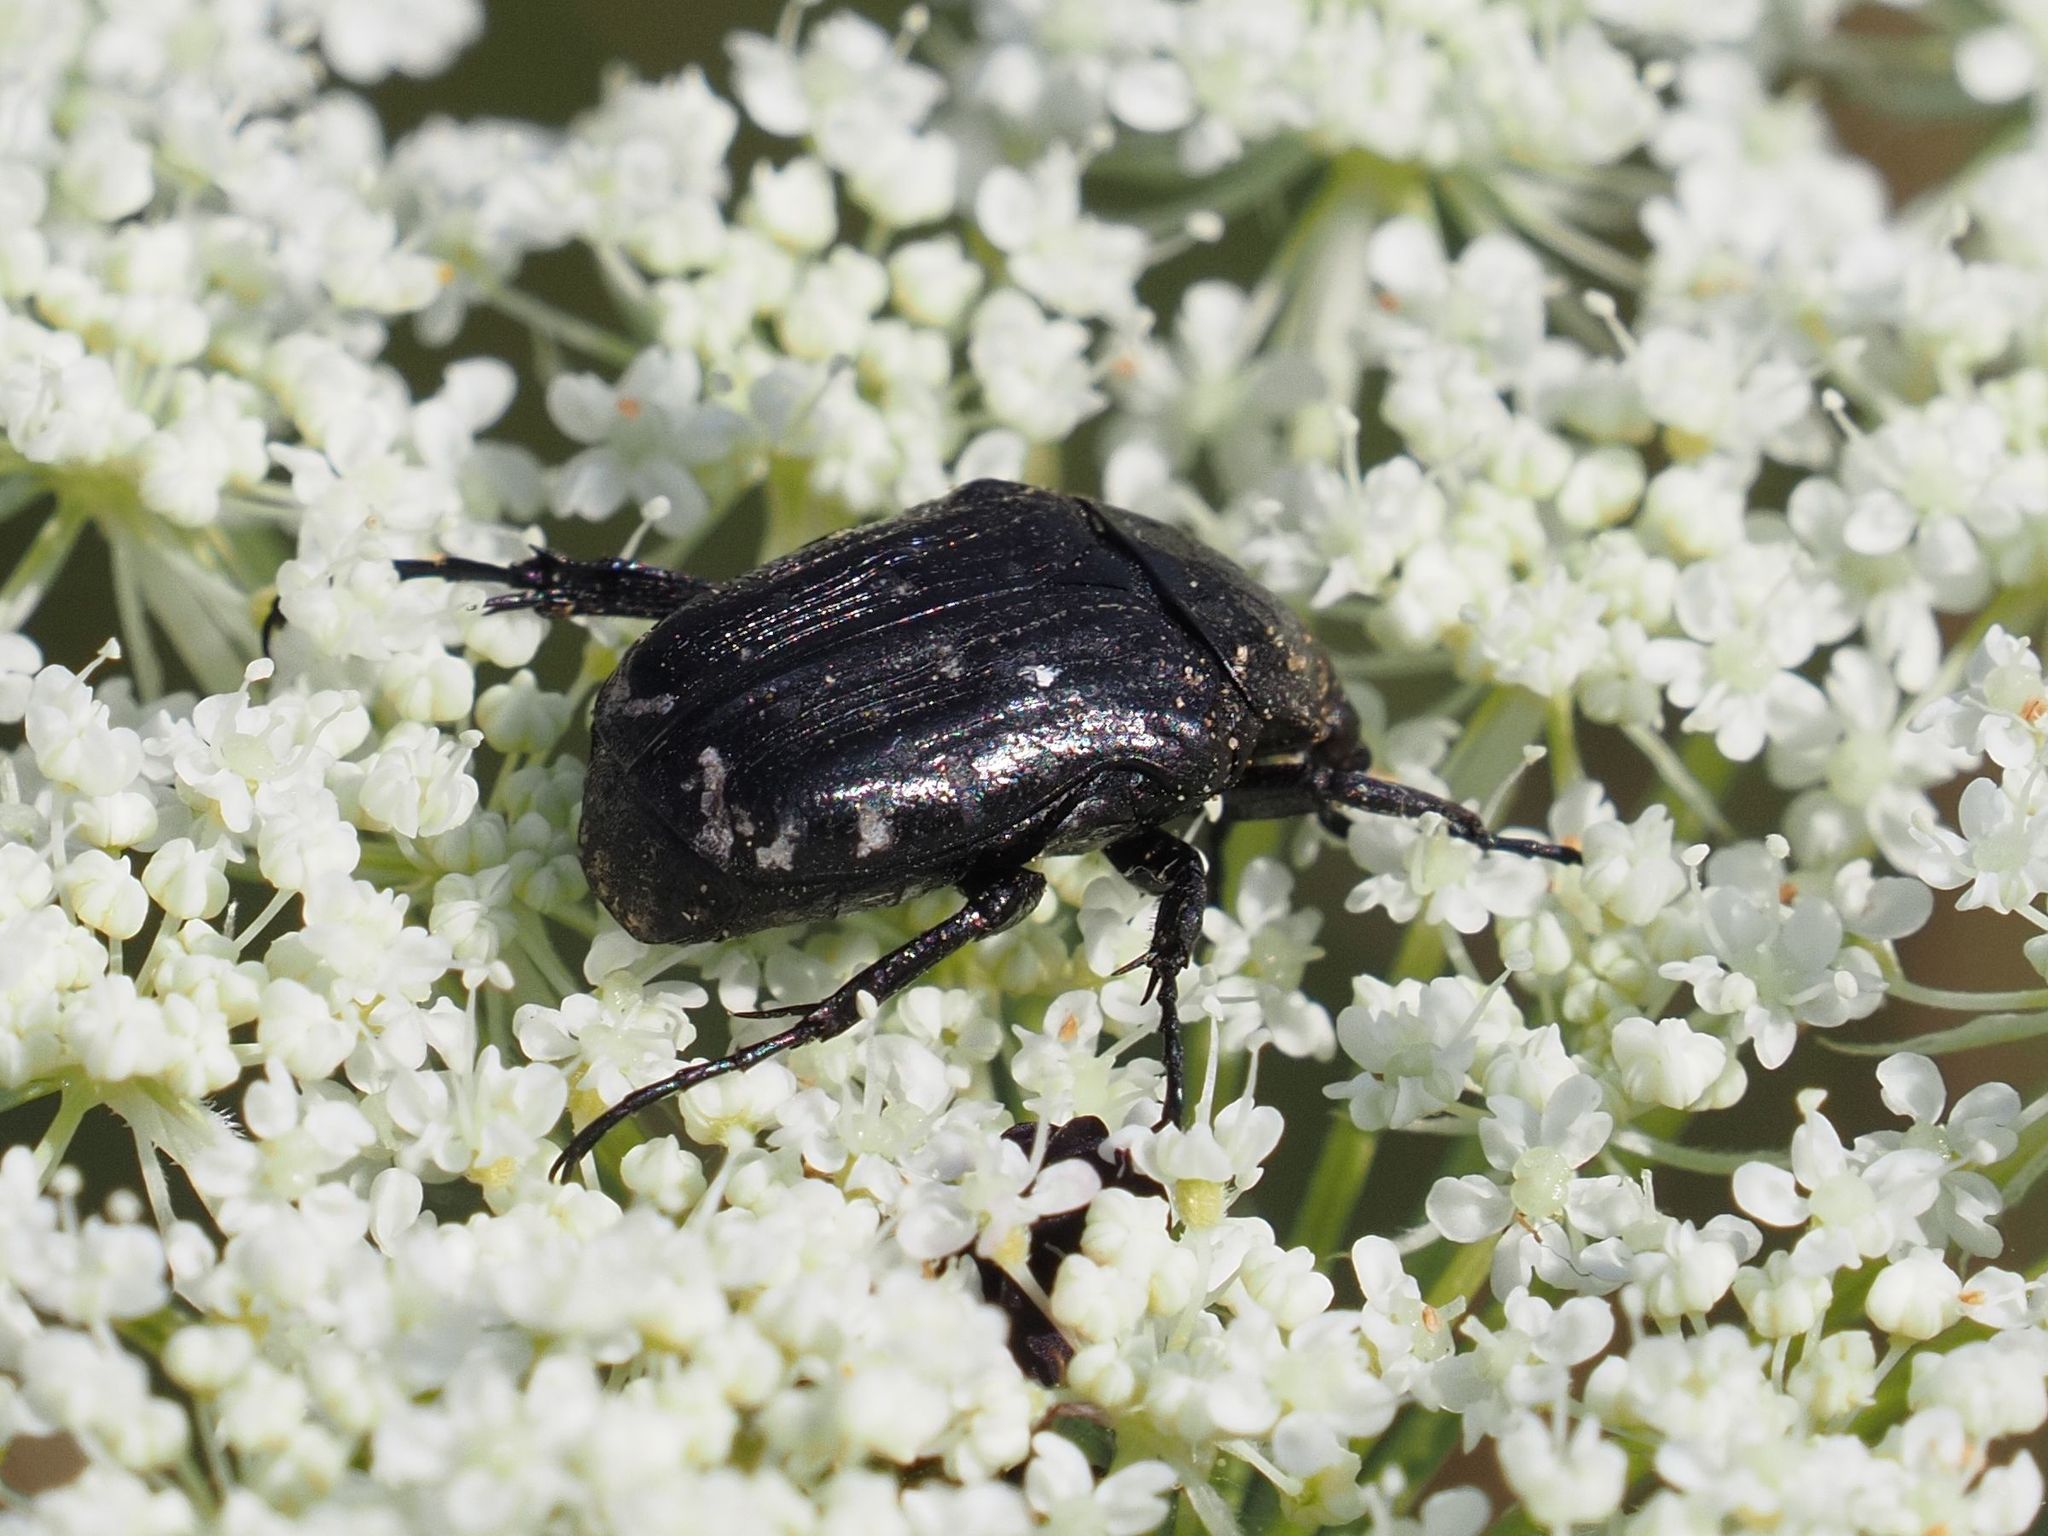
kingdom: Animalia
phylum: Arthropoda
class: Insecta
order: Coleoptera
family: Scarabaeidae
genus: Oxythyrea
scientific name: Oxythyrea funesta
